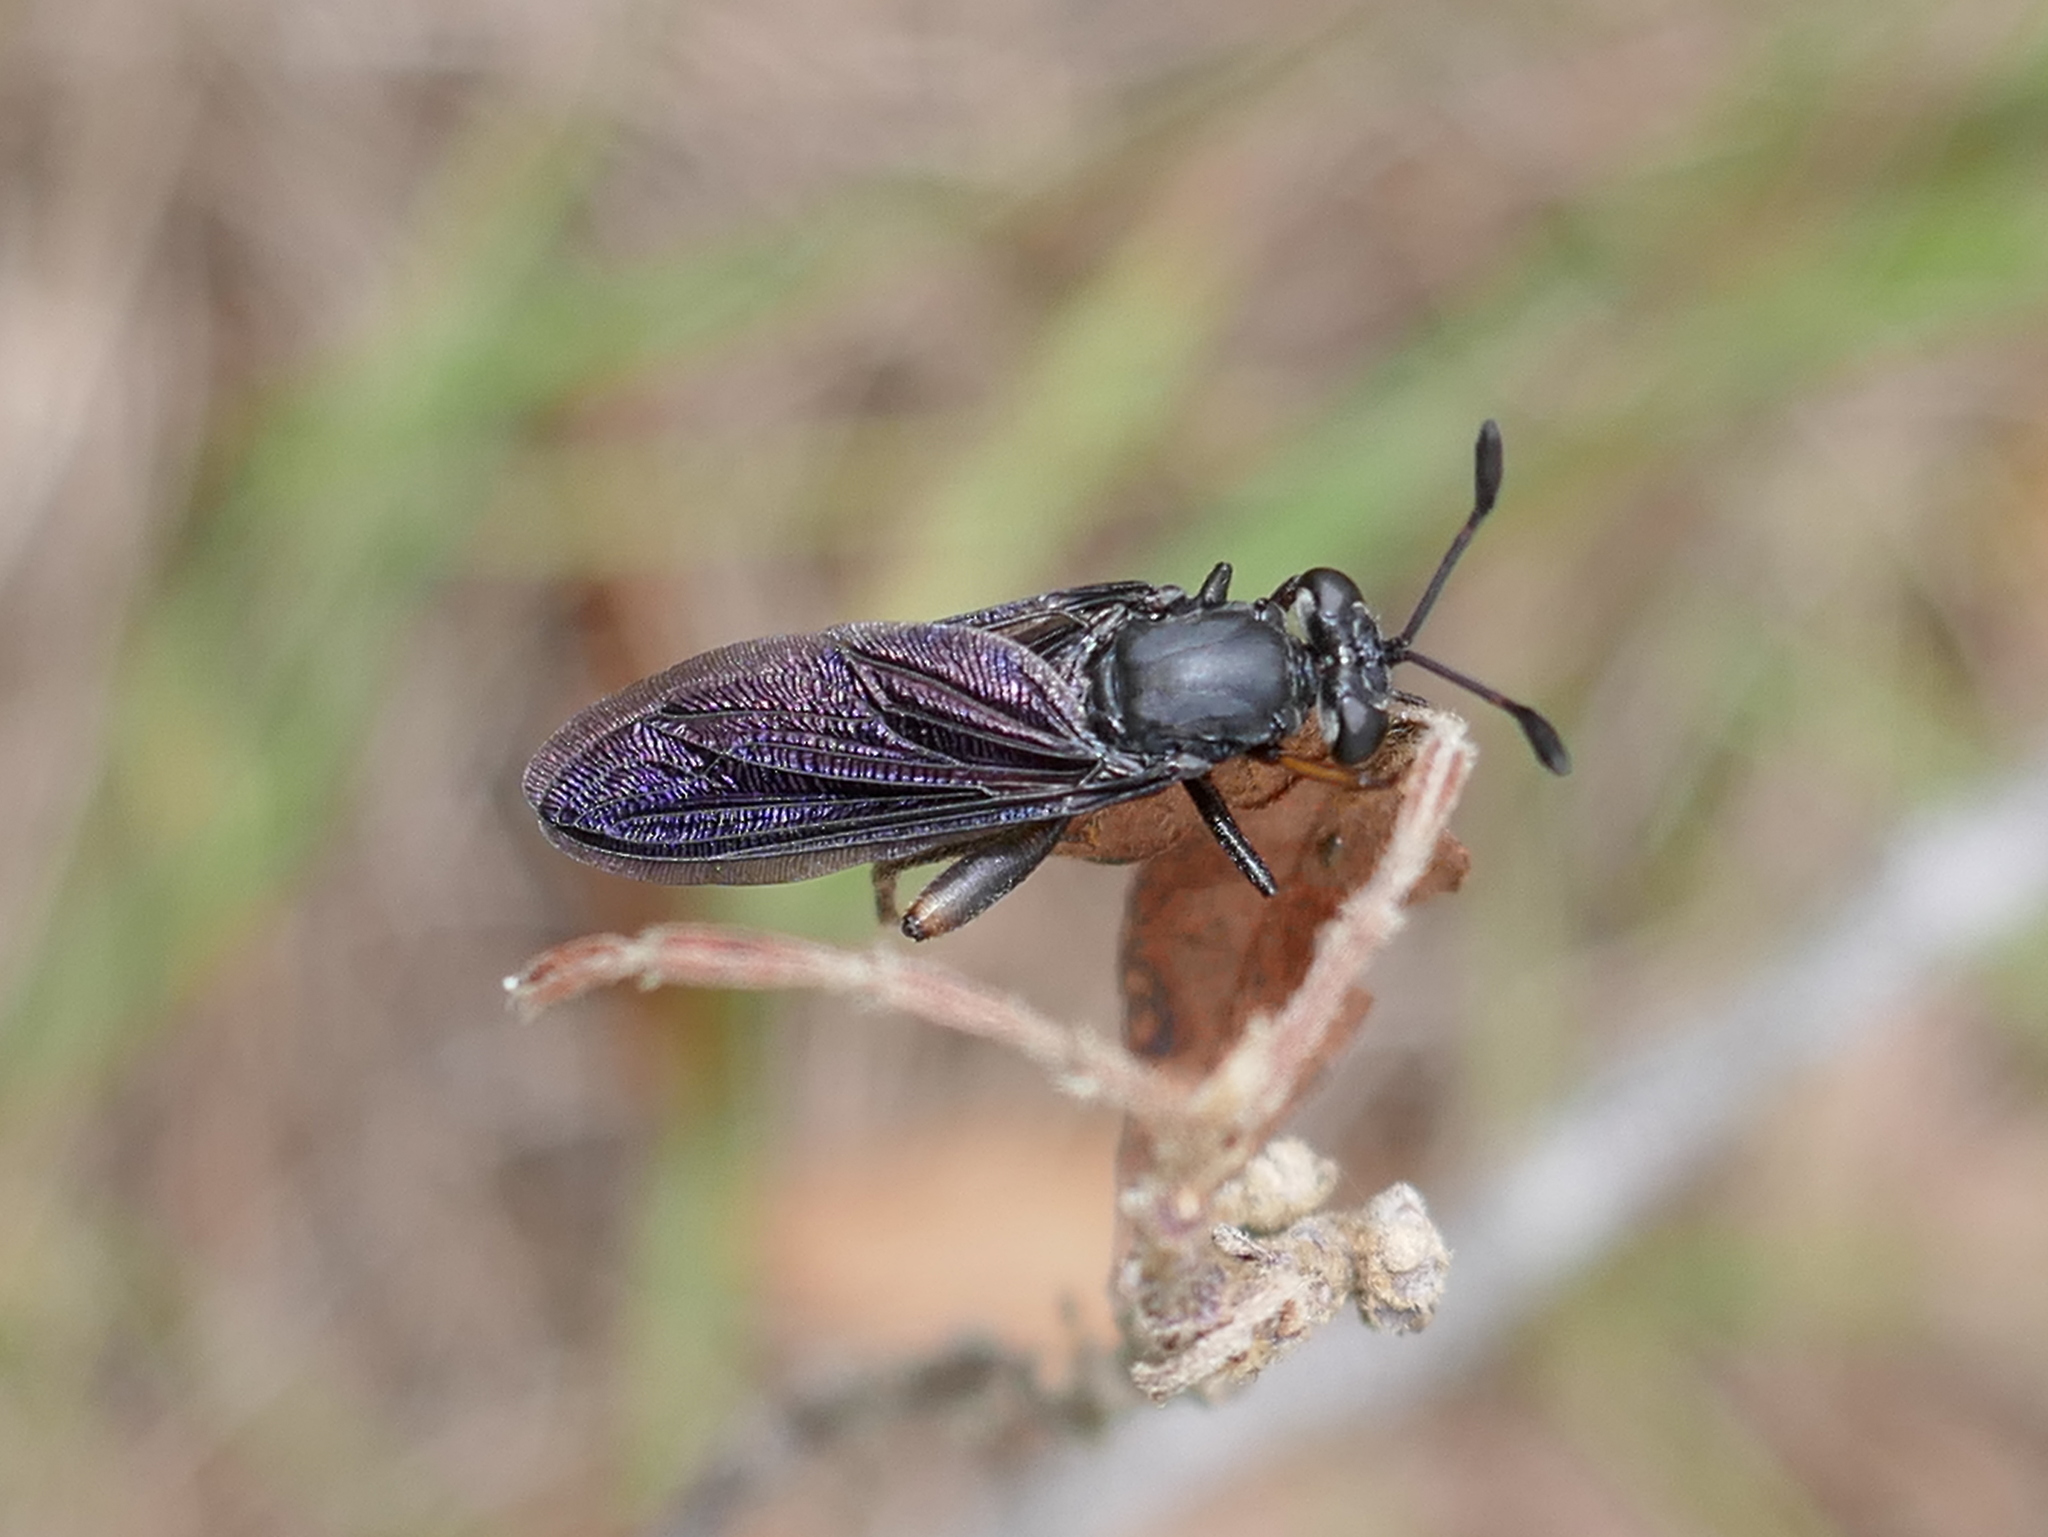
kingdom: Animalia
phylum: Arthropoda
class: Insecta
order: Diptera
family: Mydidae
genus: Phyllomydas
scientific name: Phyllomydas quercus
